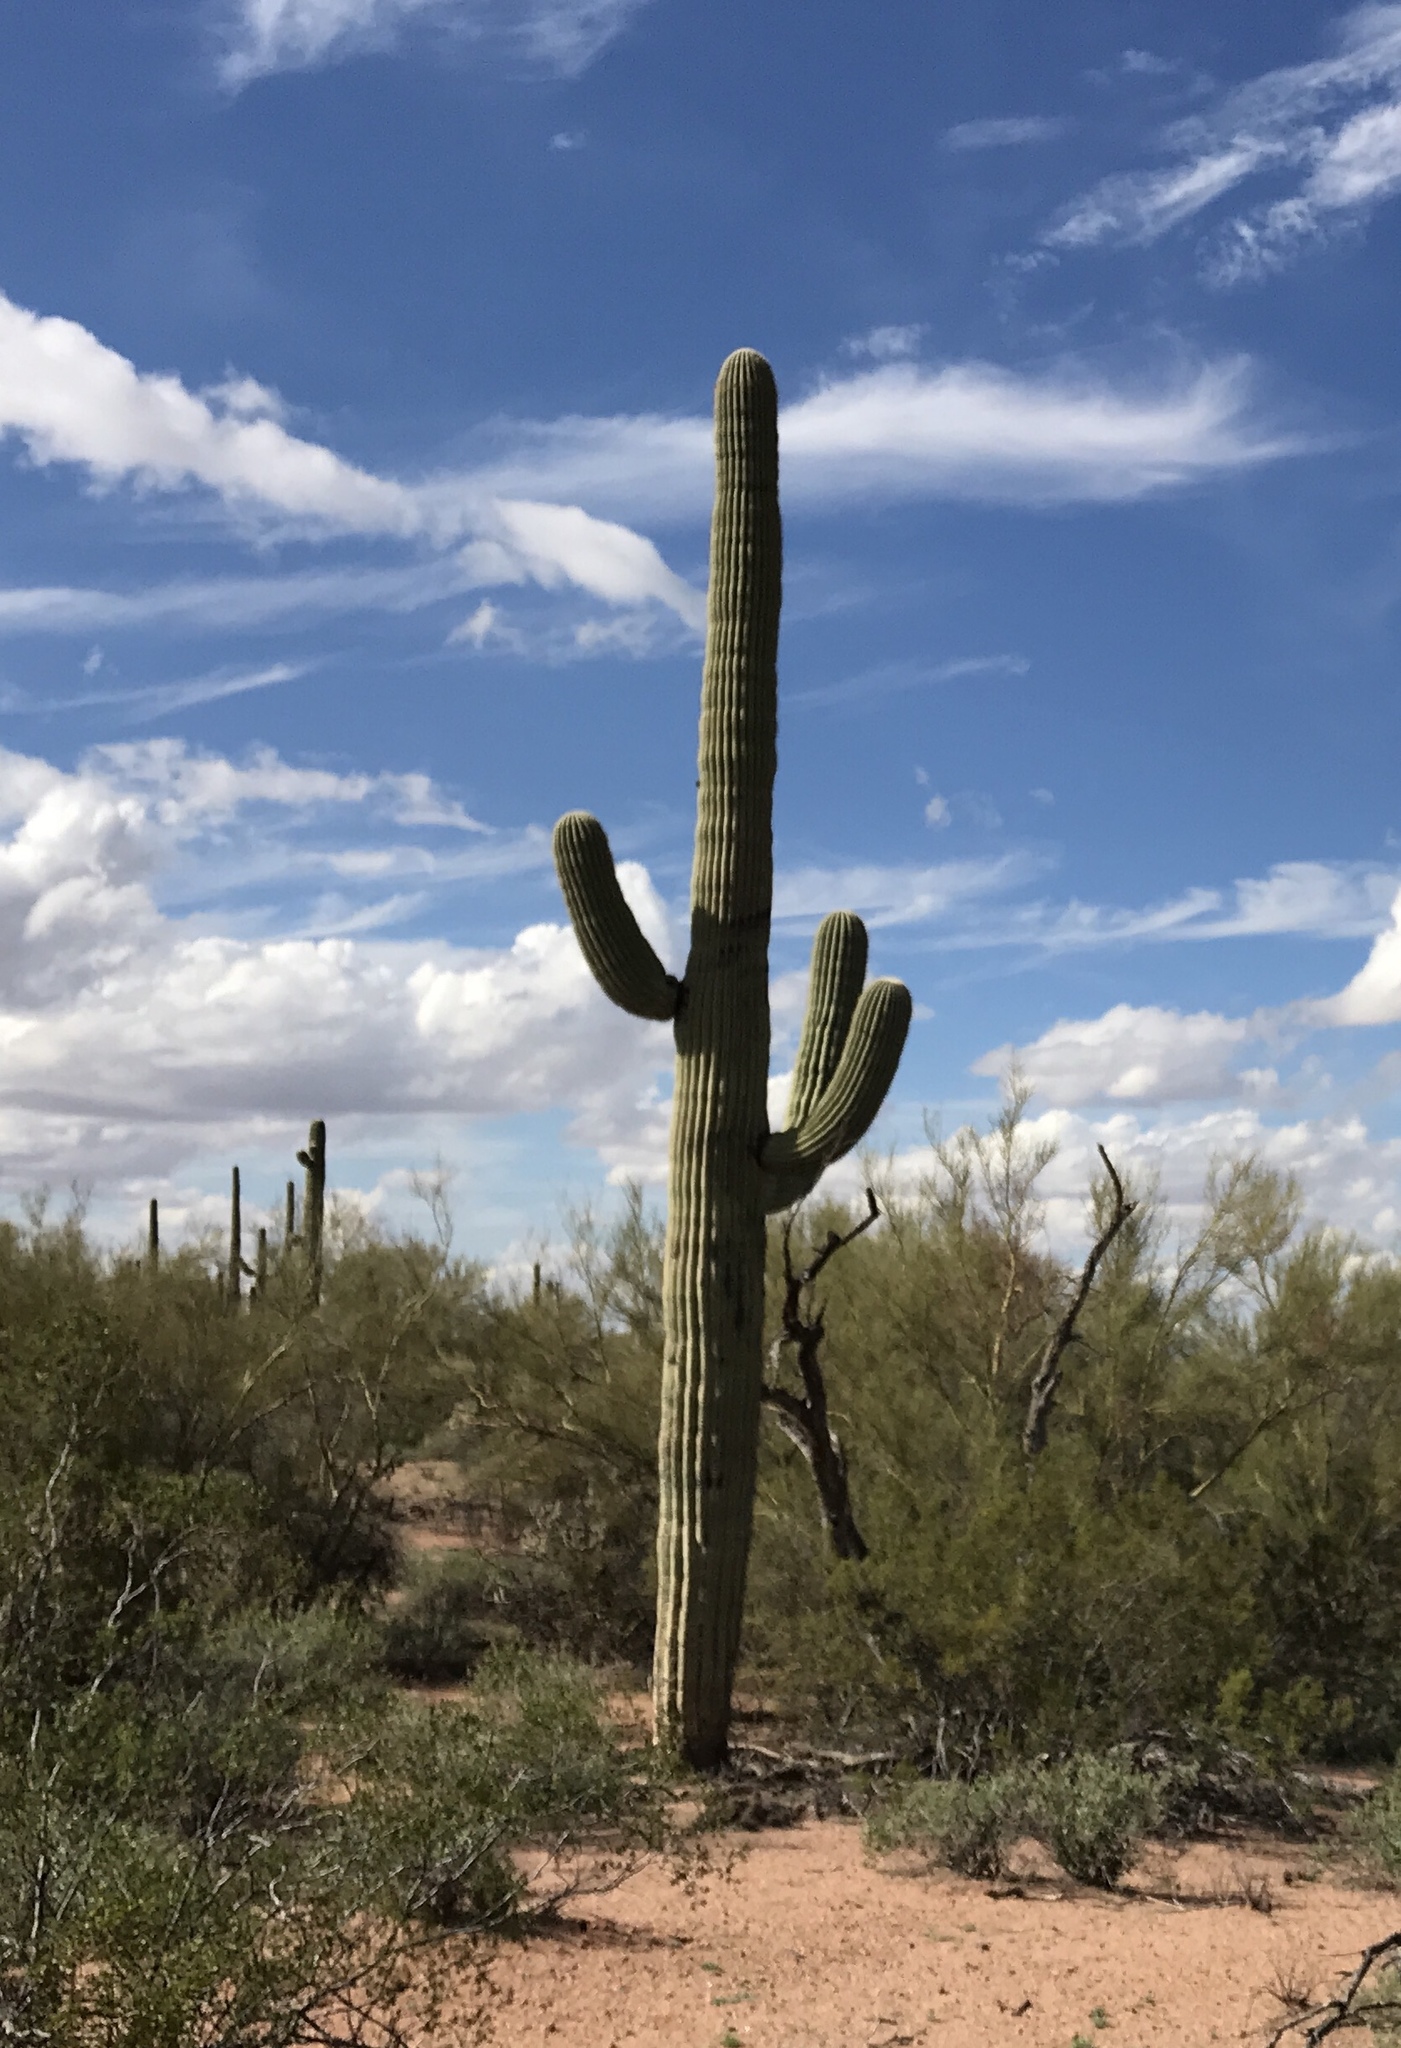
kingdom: Plantae
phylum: Tracheophyta
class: Magnoliopsida
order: Caryophyllales
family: Cactaceae
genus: Carnegiea
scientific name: Carnegiea gigantea
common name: Saguaro
